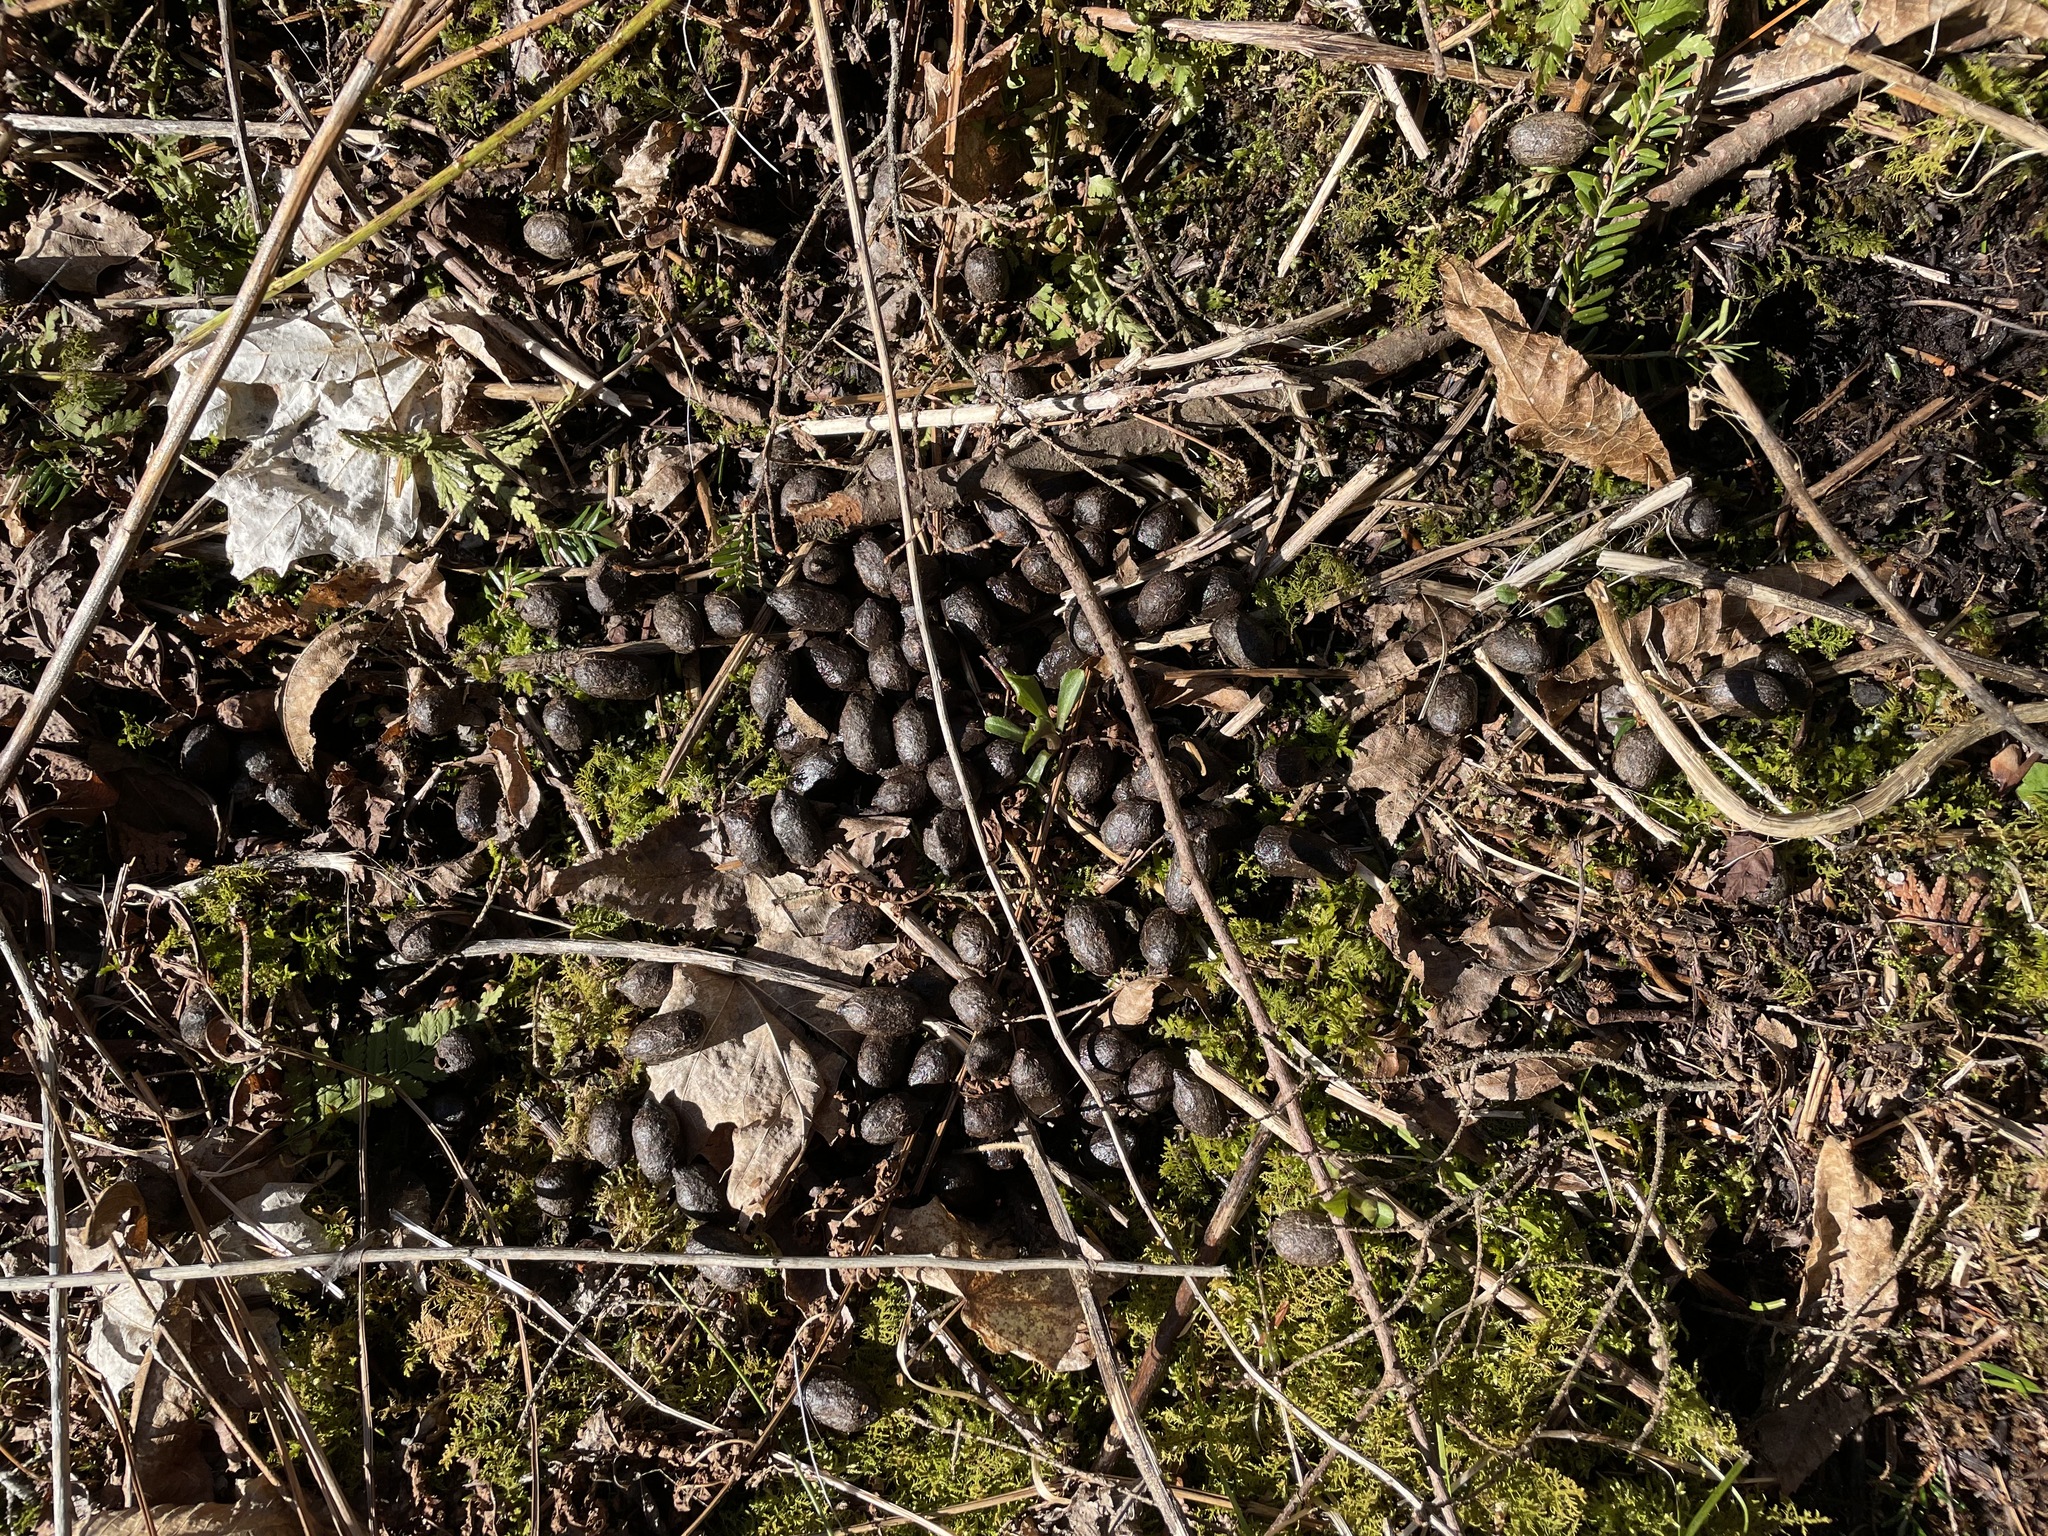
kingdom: Animalia
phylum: Chordata
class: Mammalia
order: Artiodactyla
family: Cervidae
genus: Odocoileus
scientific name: Odocoileus virginianus
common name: White-tailed deer
